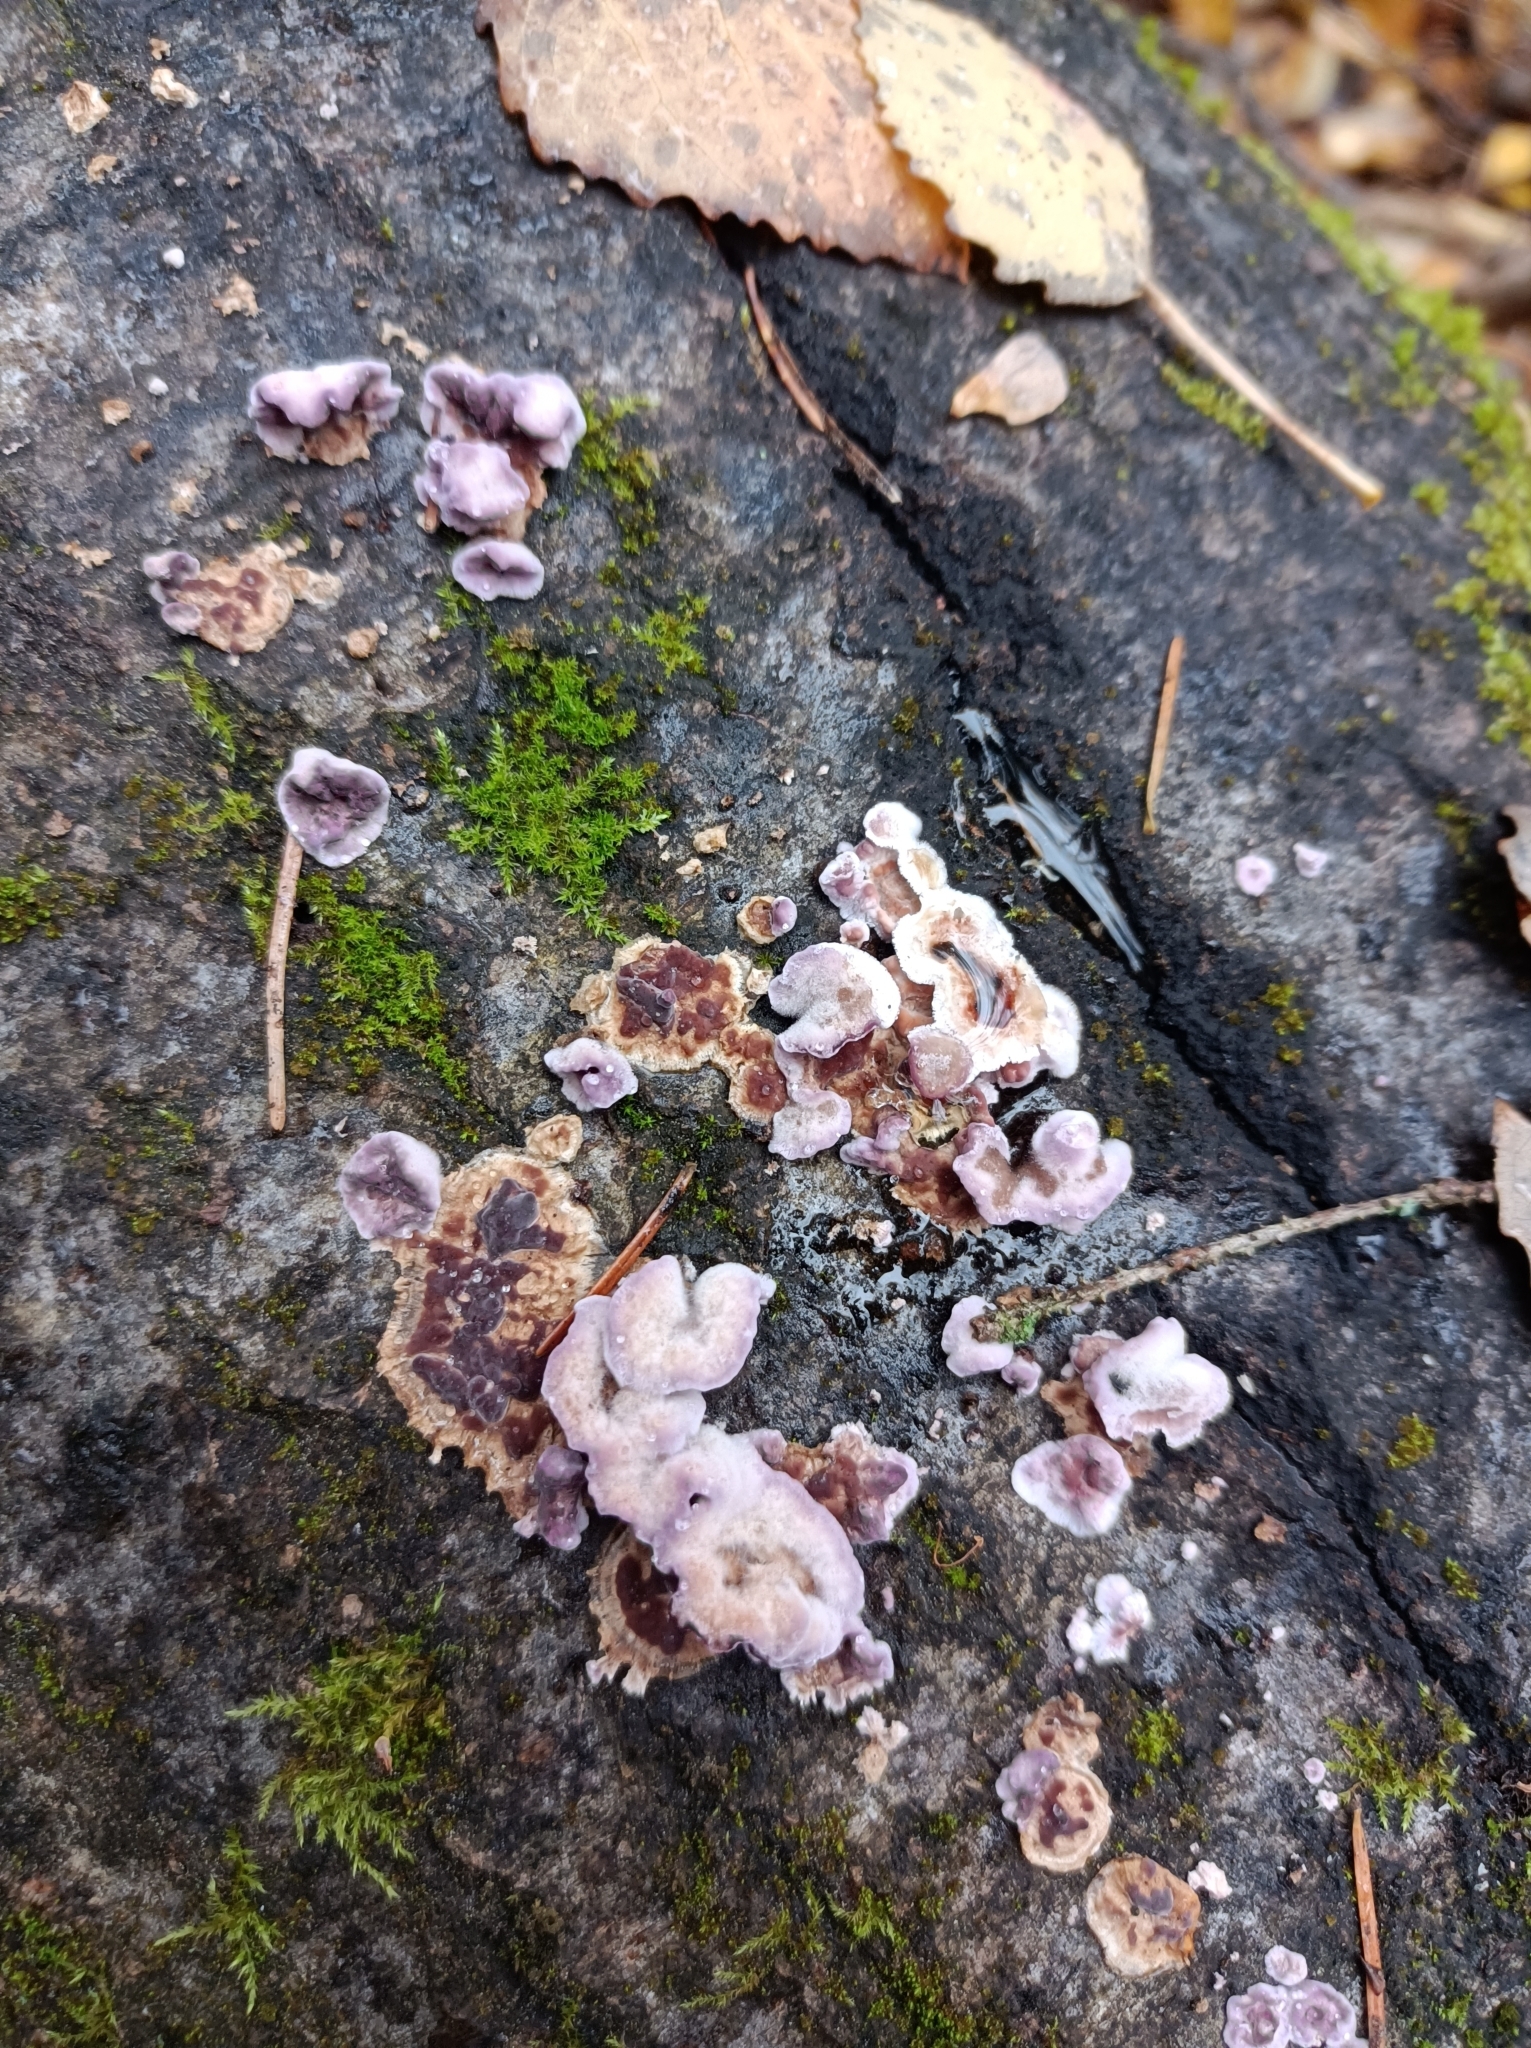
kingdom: Fungi
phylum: Basidiomycota
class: Agaricomycetes
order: Agaricales
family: Cyphellaceae
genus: Chondrostereum
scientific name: Chondrostereum purpureum
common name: Silver leaf disease
